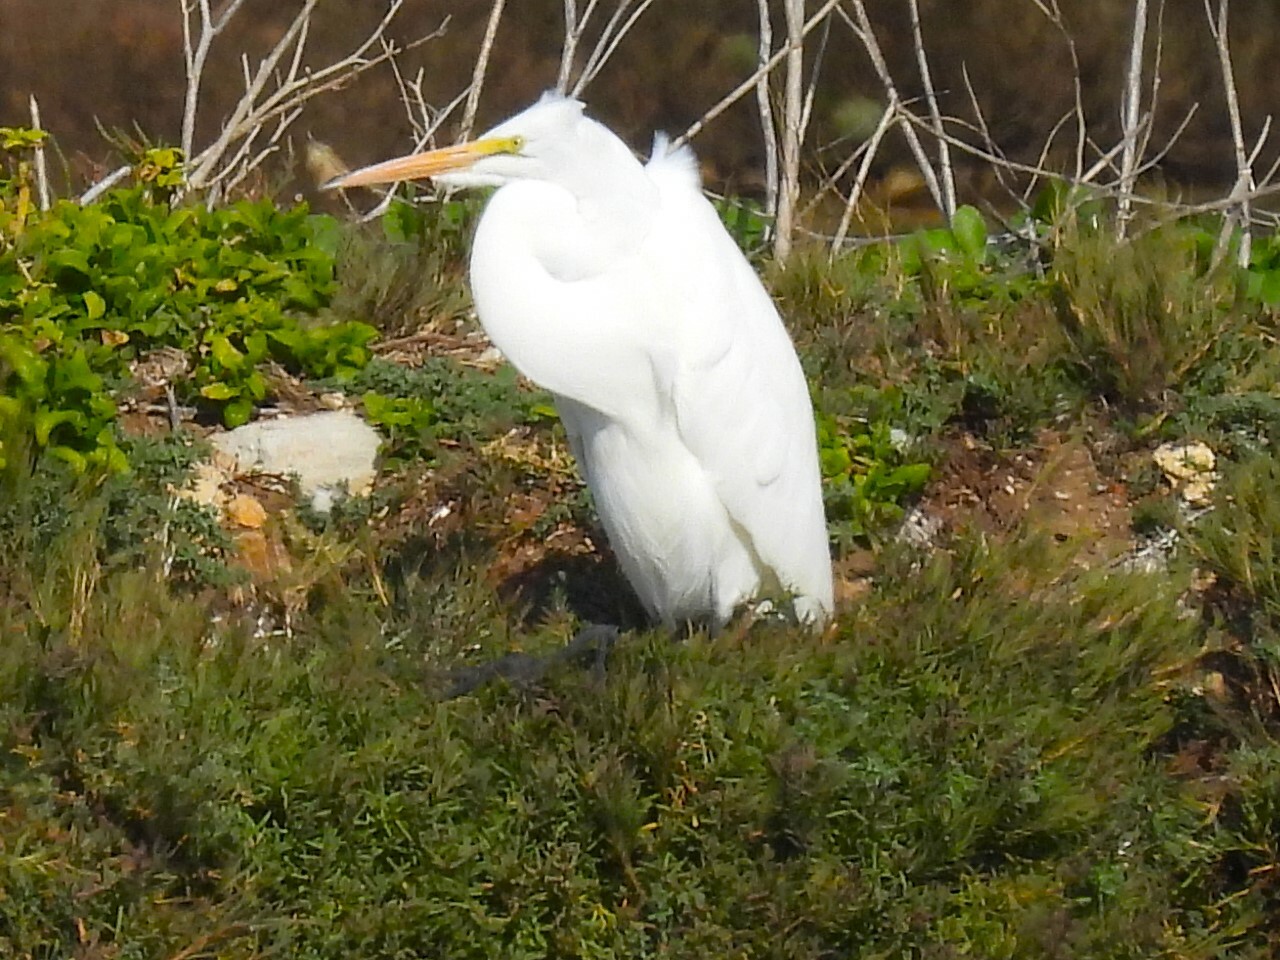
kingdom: Animalia
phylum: Chordata
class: Aves
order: Pelecaniformes
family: Ardeidae
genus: Ardea
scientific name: Ardea alba
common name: Great egret
